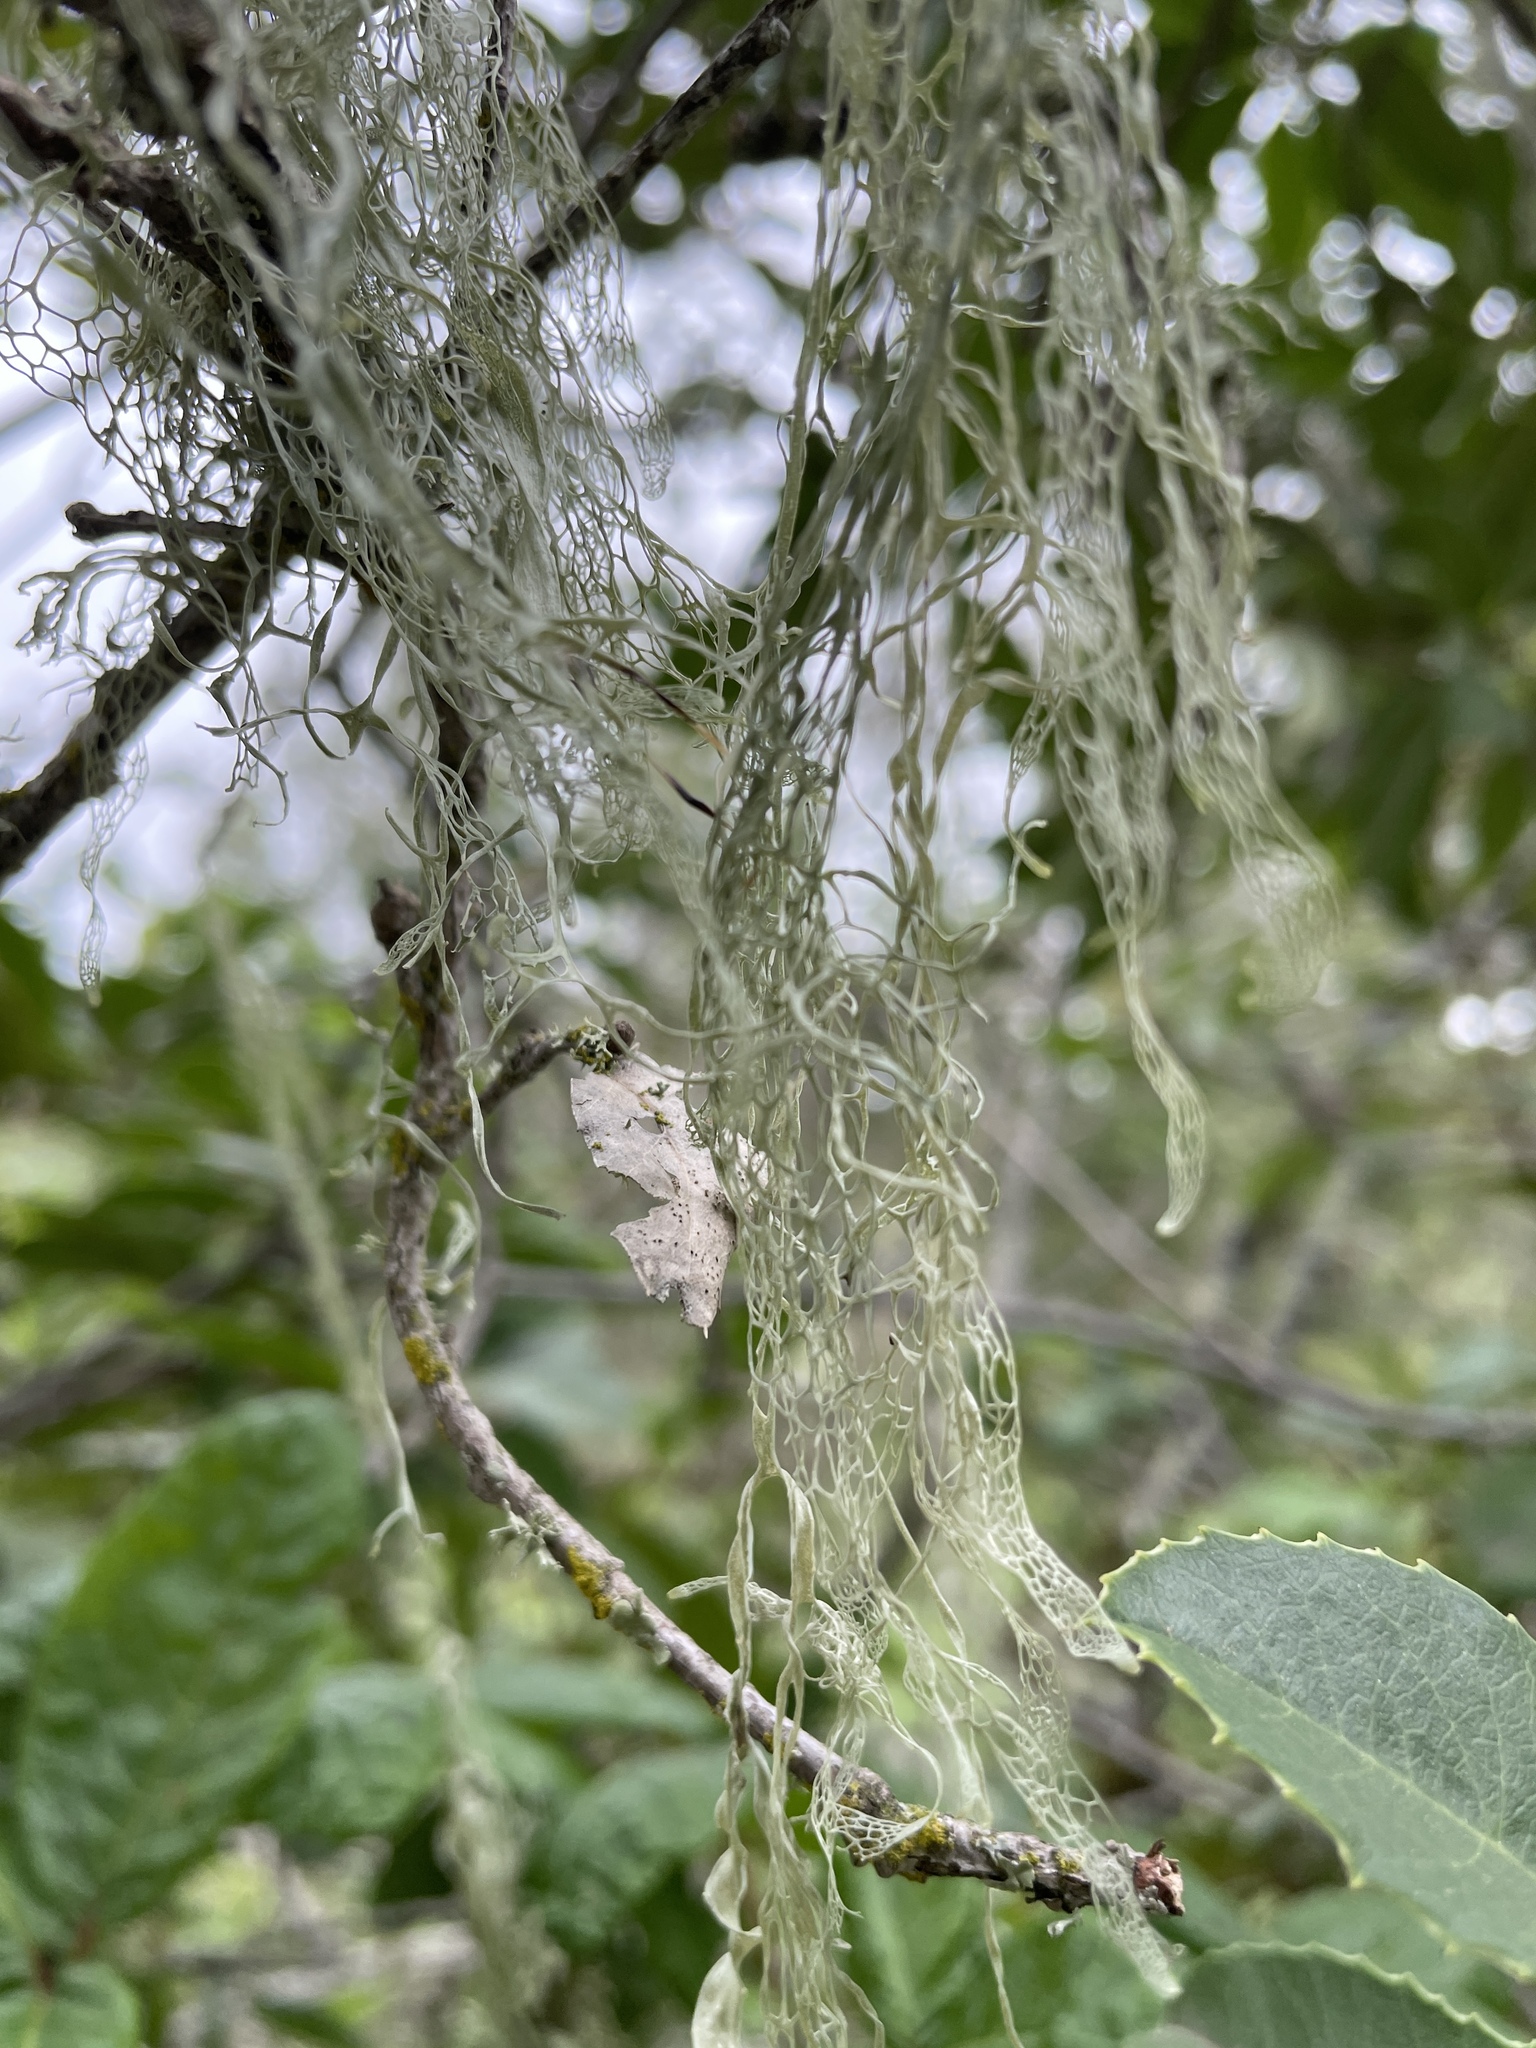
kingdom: Fungi
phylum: Ascomycota
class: Lecanoromycetes
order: Lecanorales
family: Ramalinaceae
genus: Ramalina
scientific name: Ramalina menziesii
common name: Lace lichen
